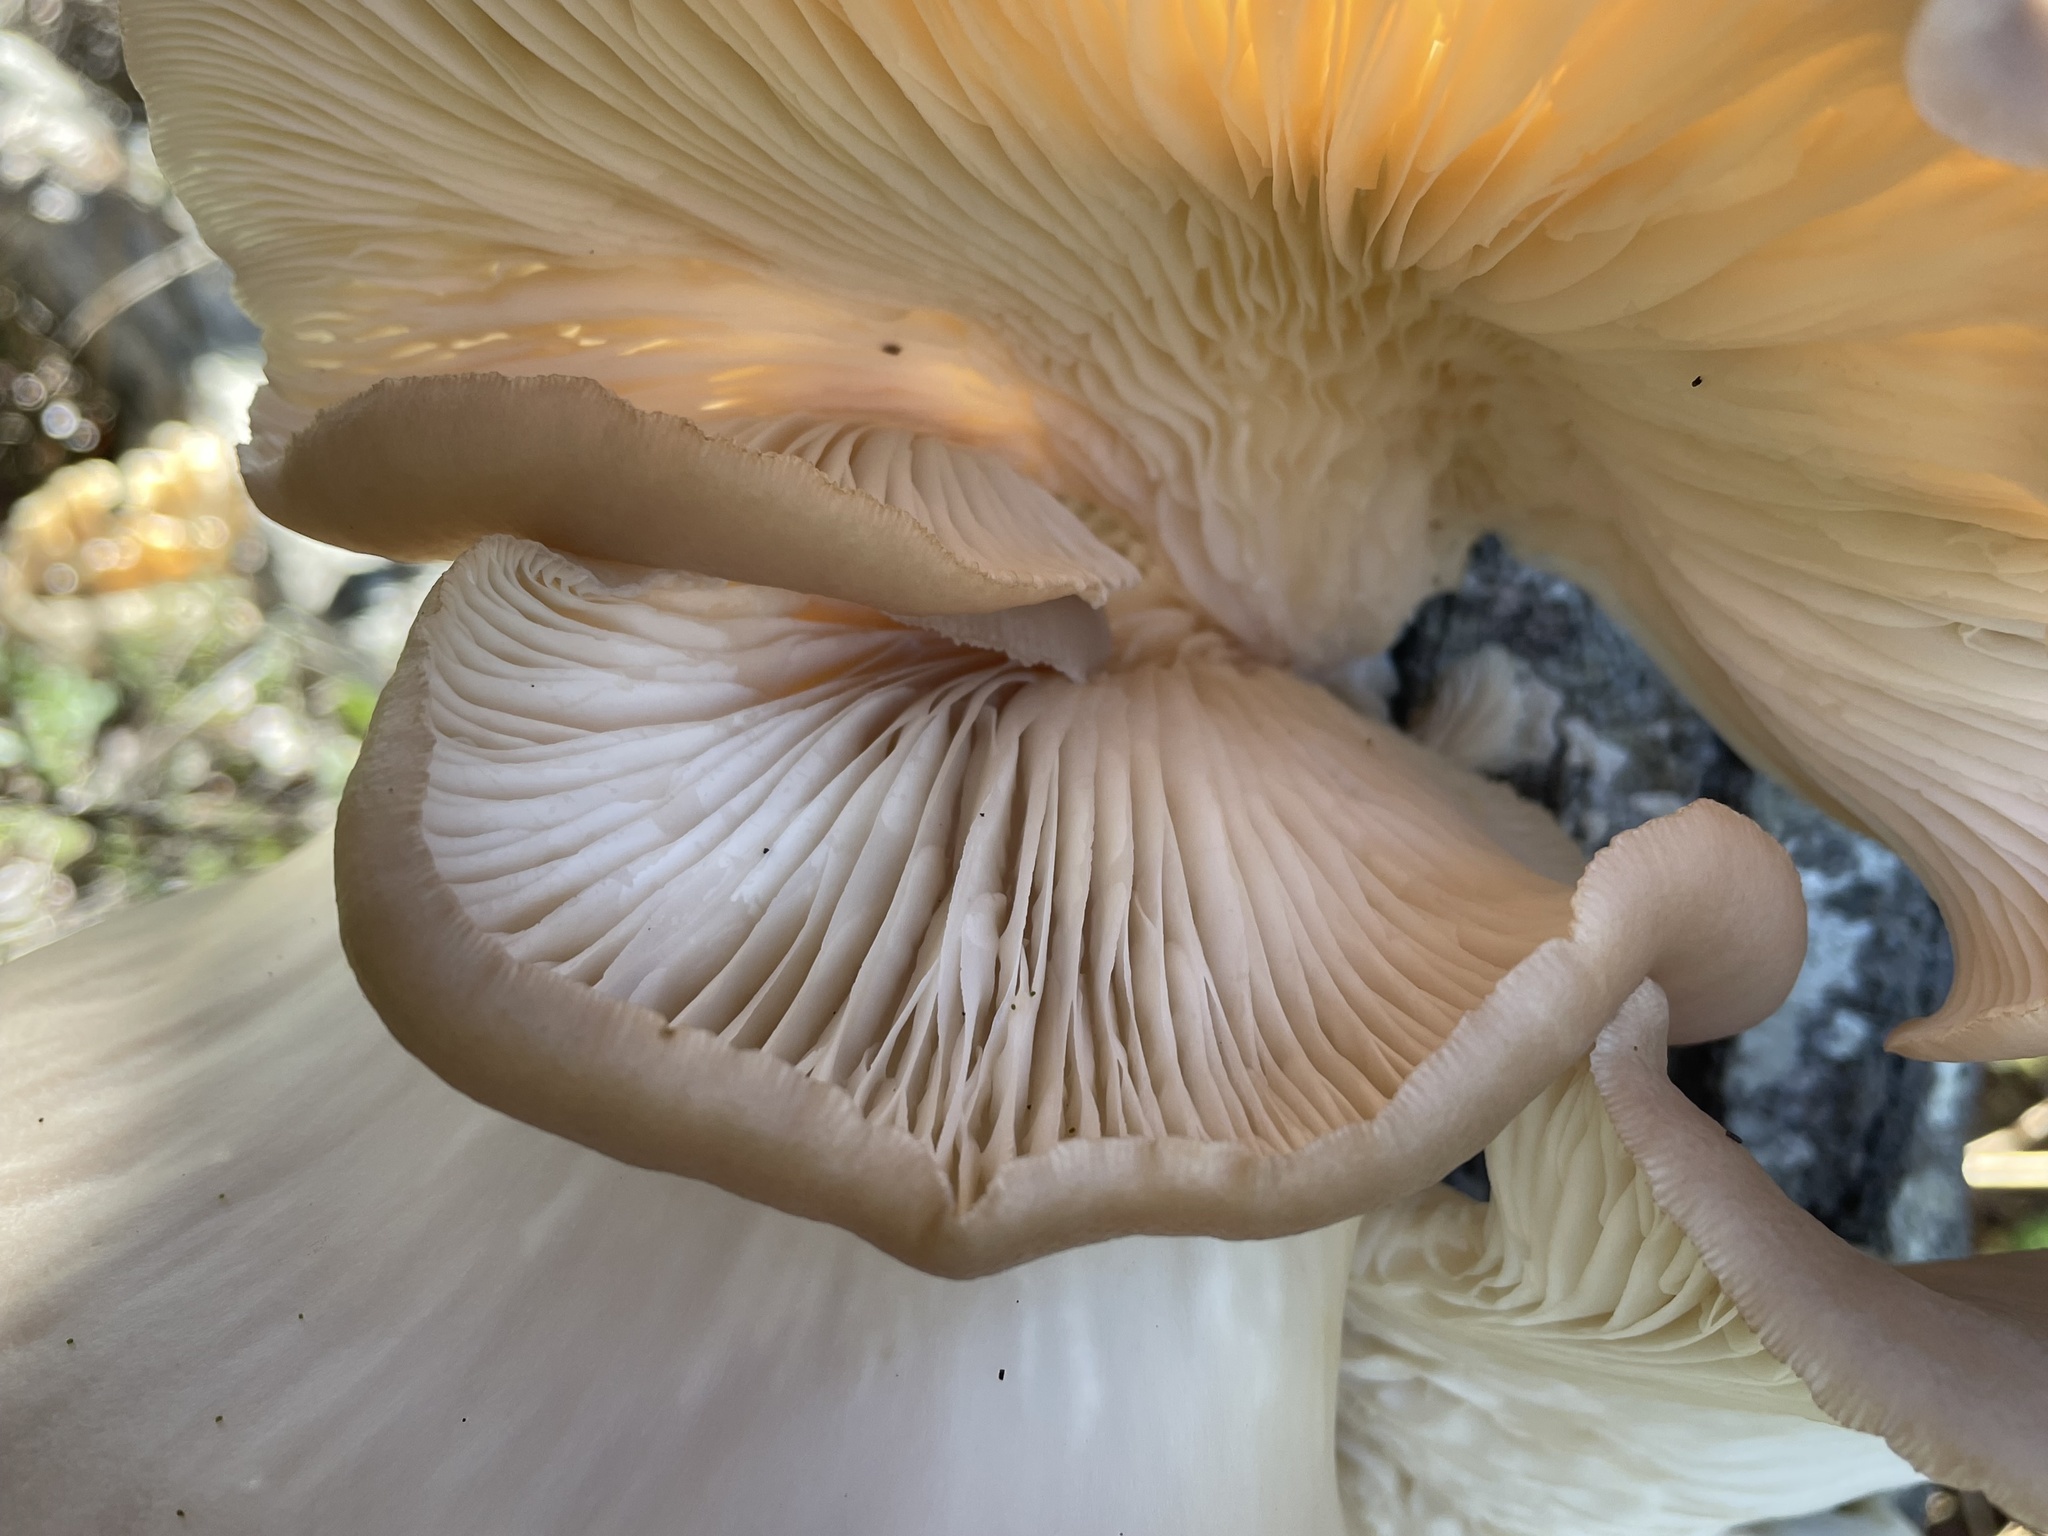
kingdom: Fungi
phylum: Basidiomycota
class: Agaricomycetes
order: Agaricales
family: Pleurotaceae
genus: Pleurotus
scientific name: Pleurotus ostreatus
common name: Oyster mushroom
